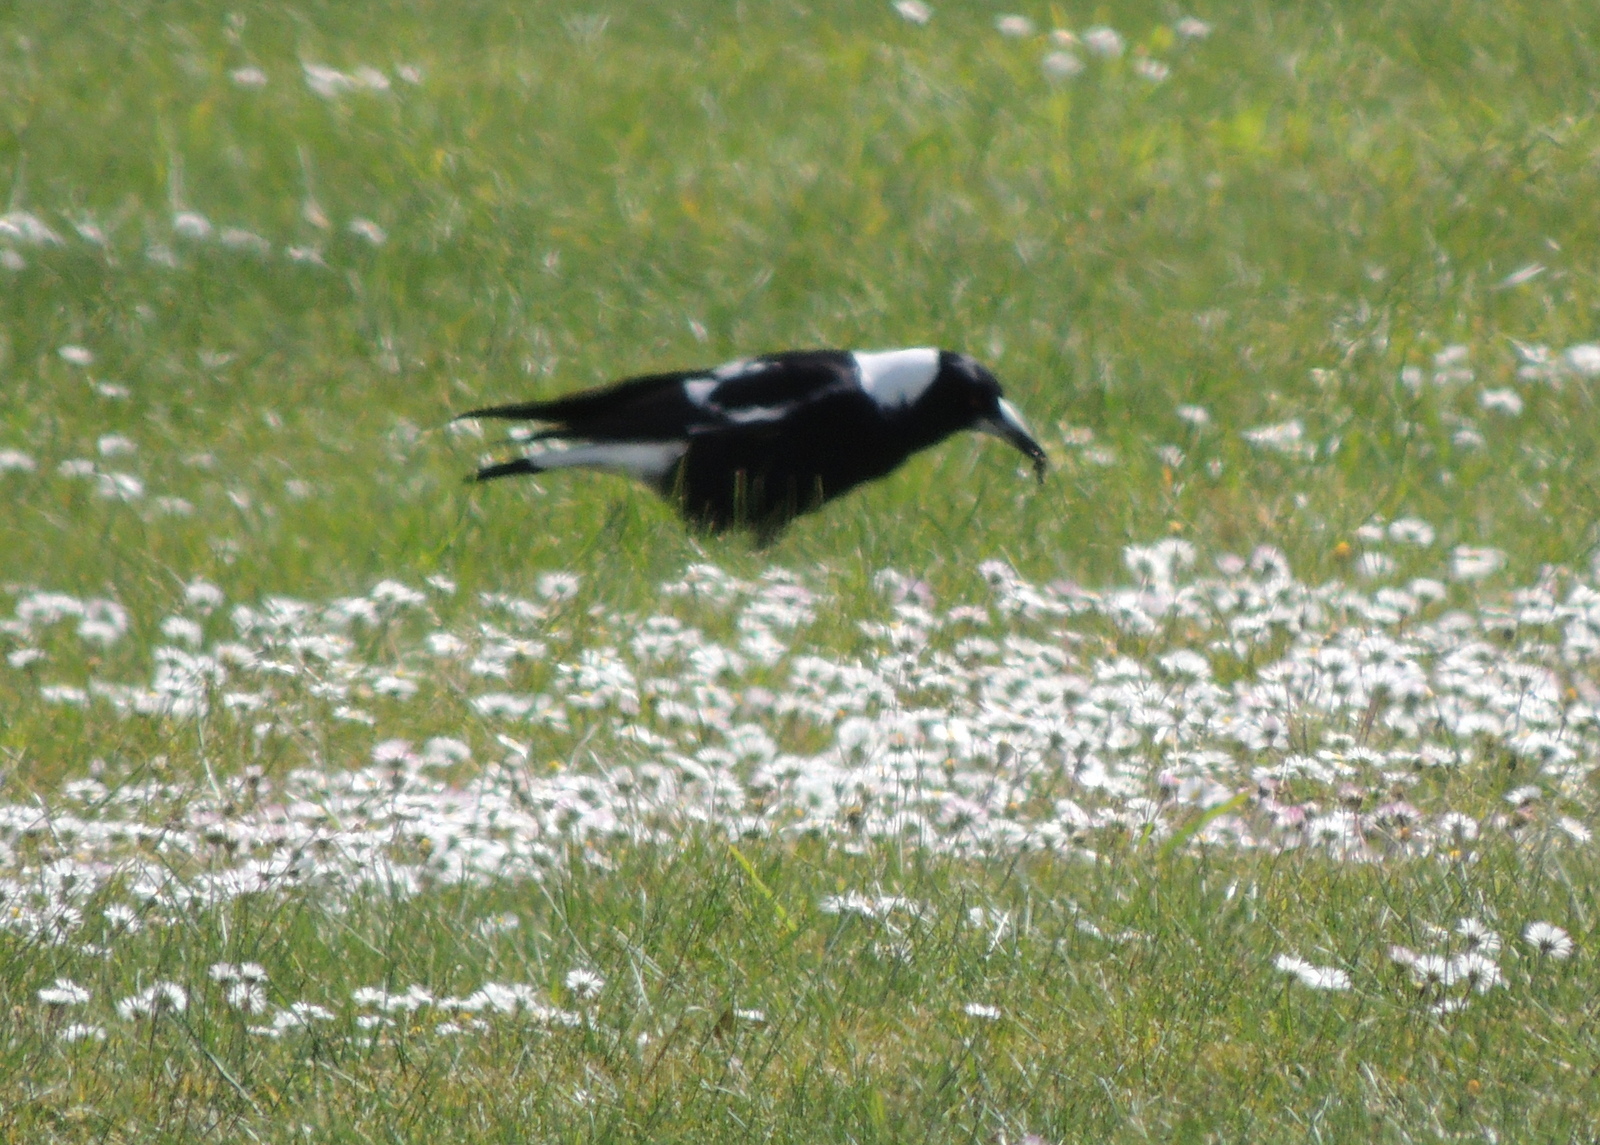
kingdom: Animalia
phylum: Chordata
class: Aves
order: Passeriformes
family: Cracticidae
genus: Gymnorhina
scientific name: Gymnorhina tibicen
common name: Australian magpie
